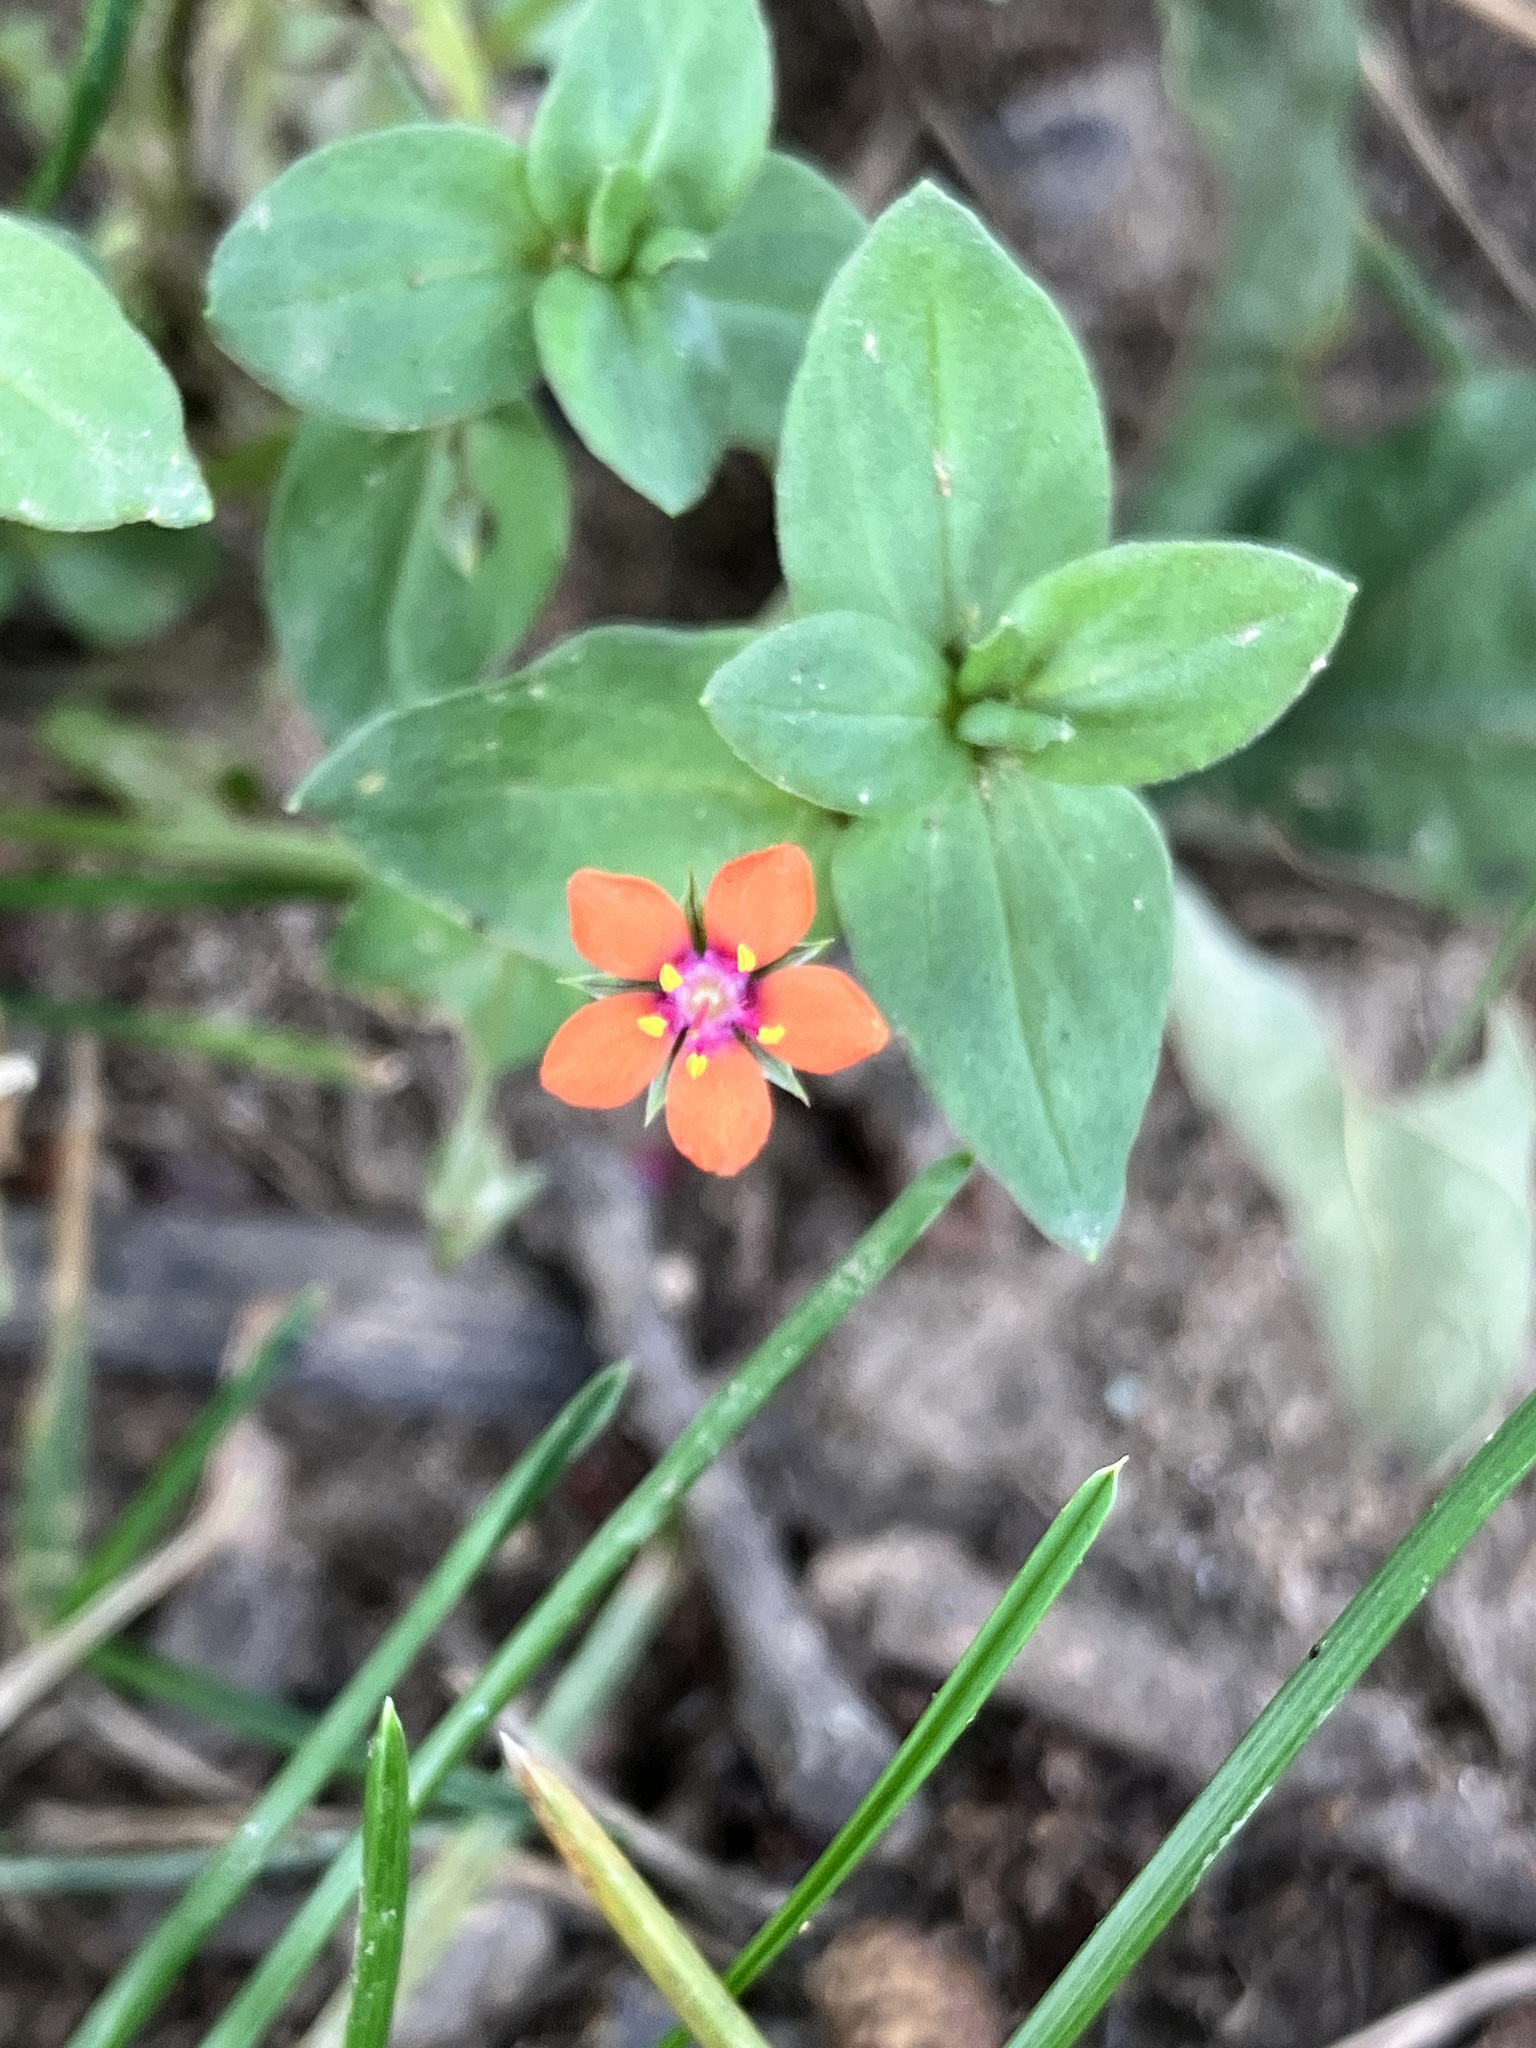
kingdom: Plantae
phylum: Tracheophyta
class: Magnoliopsida
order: Ericales
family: Primulaceae
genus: Lysimachia
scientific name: Lysimachia arvensis
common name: Scarlet pimpernel
